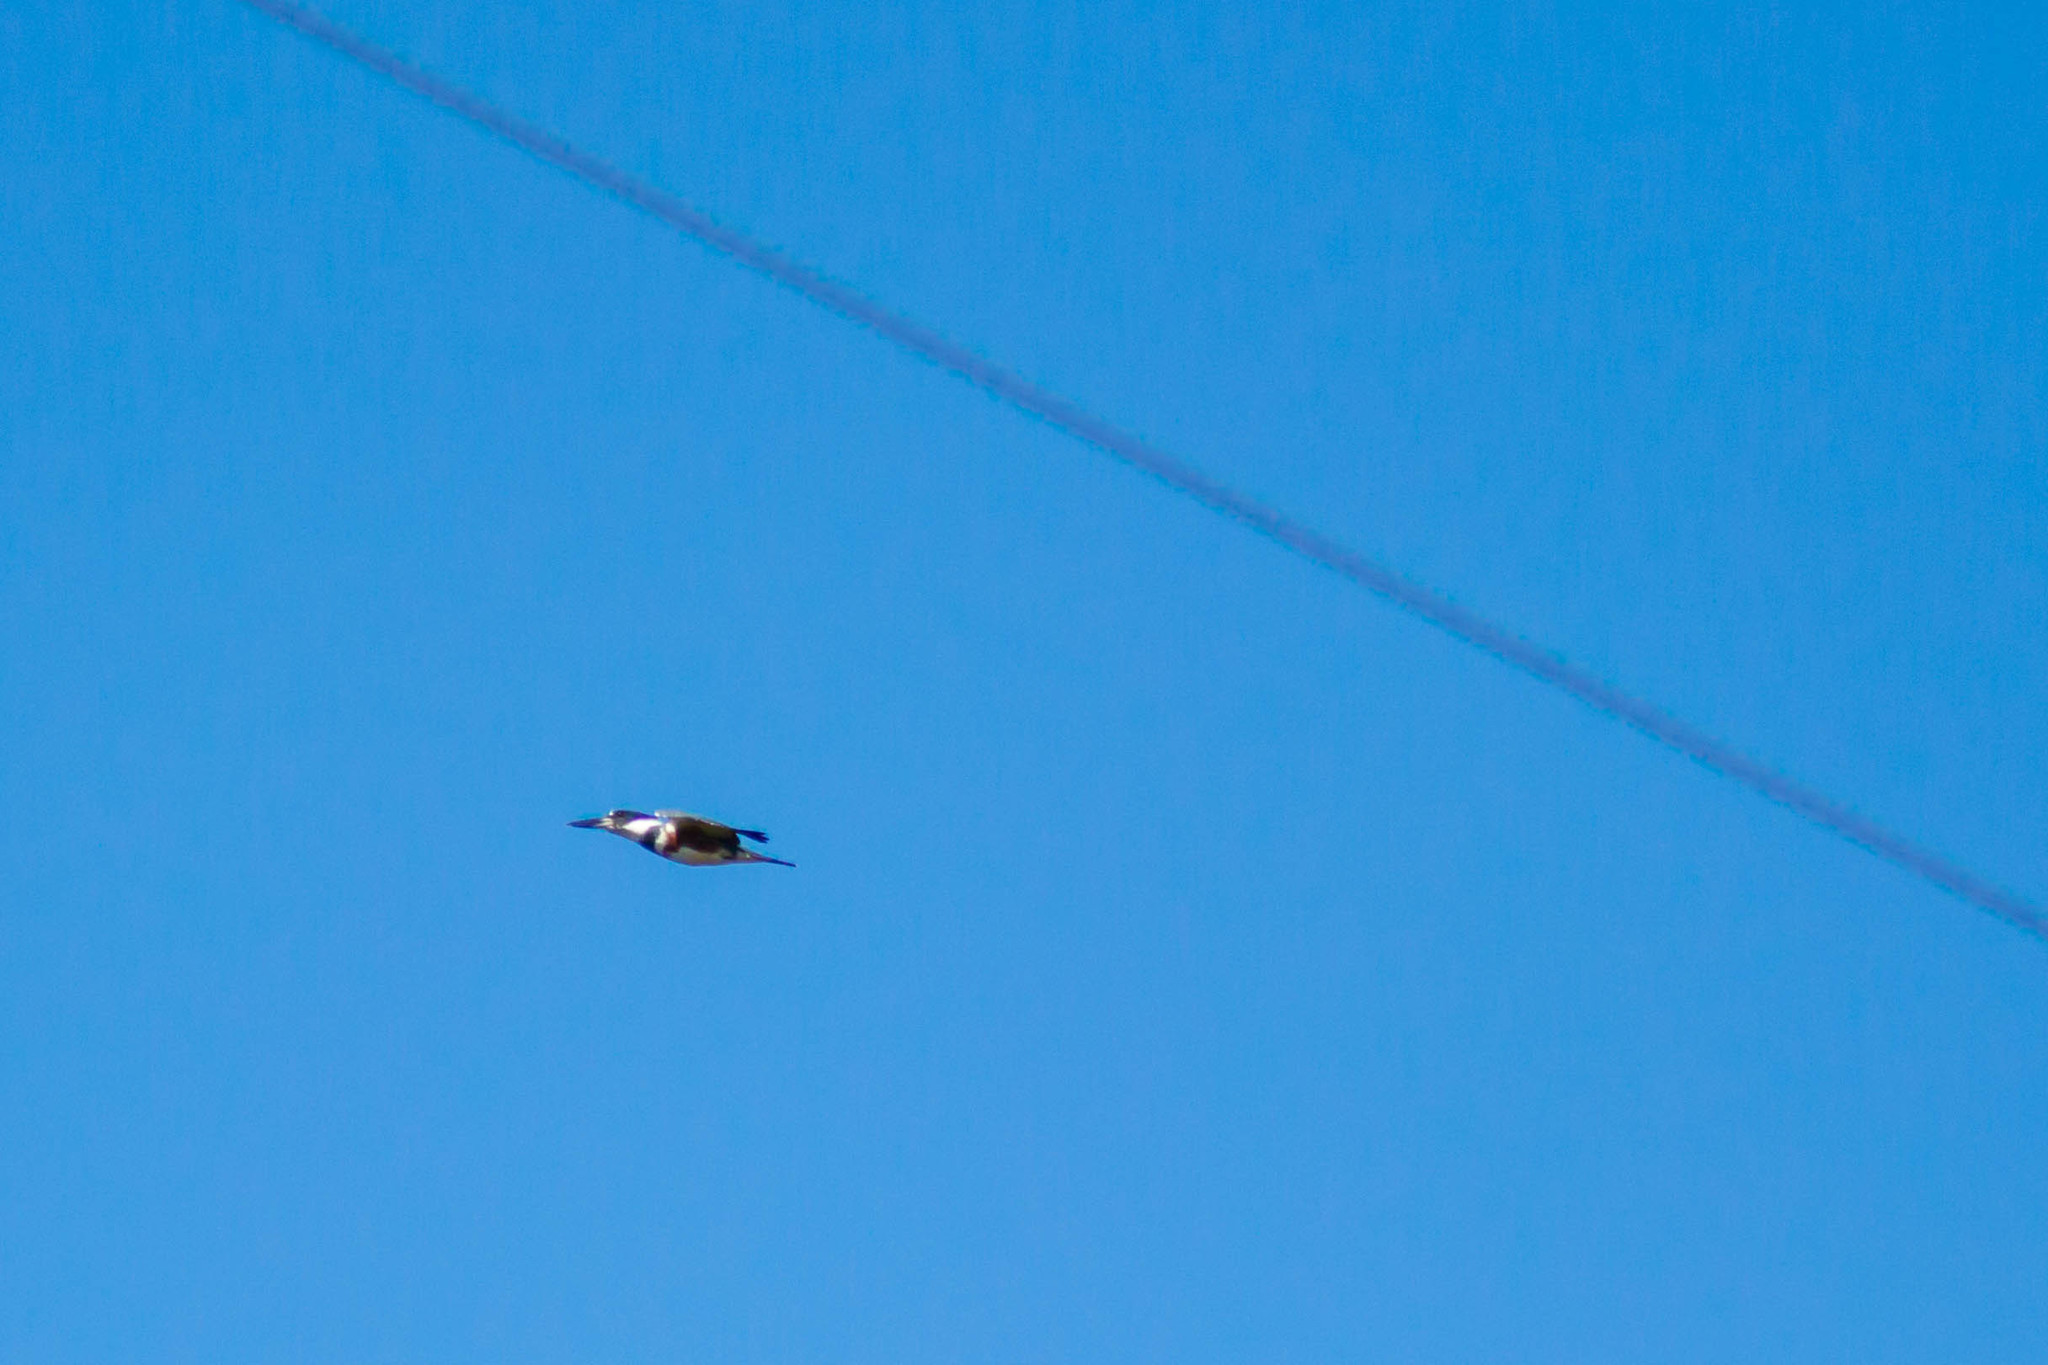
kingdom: Animalia
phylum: Chordata
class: Aves
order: Coraciiformes
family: Alcedinidae
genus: Megaceryle
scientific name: Megaceryle alcyon
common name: Belted kingfisher
